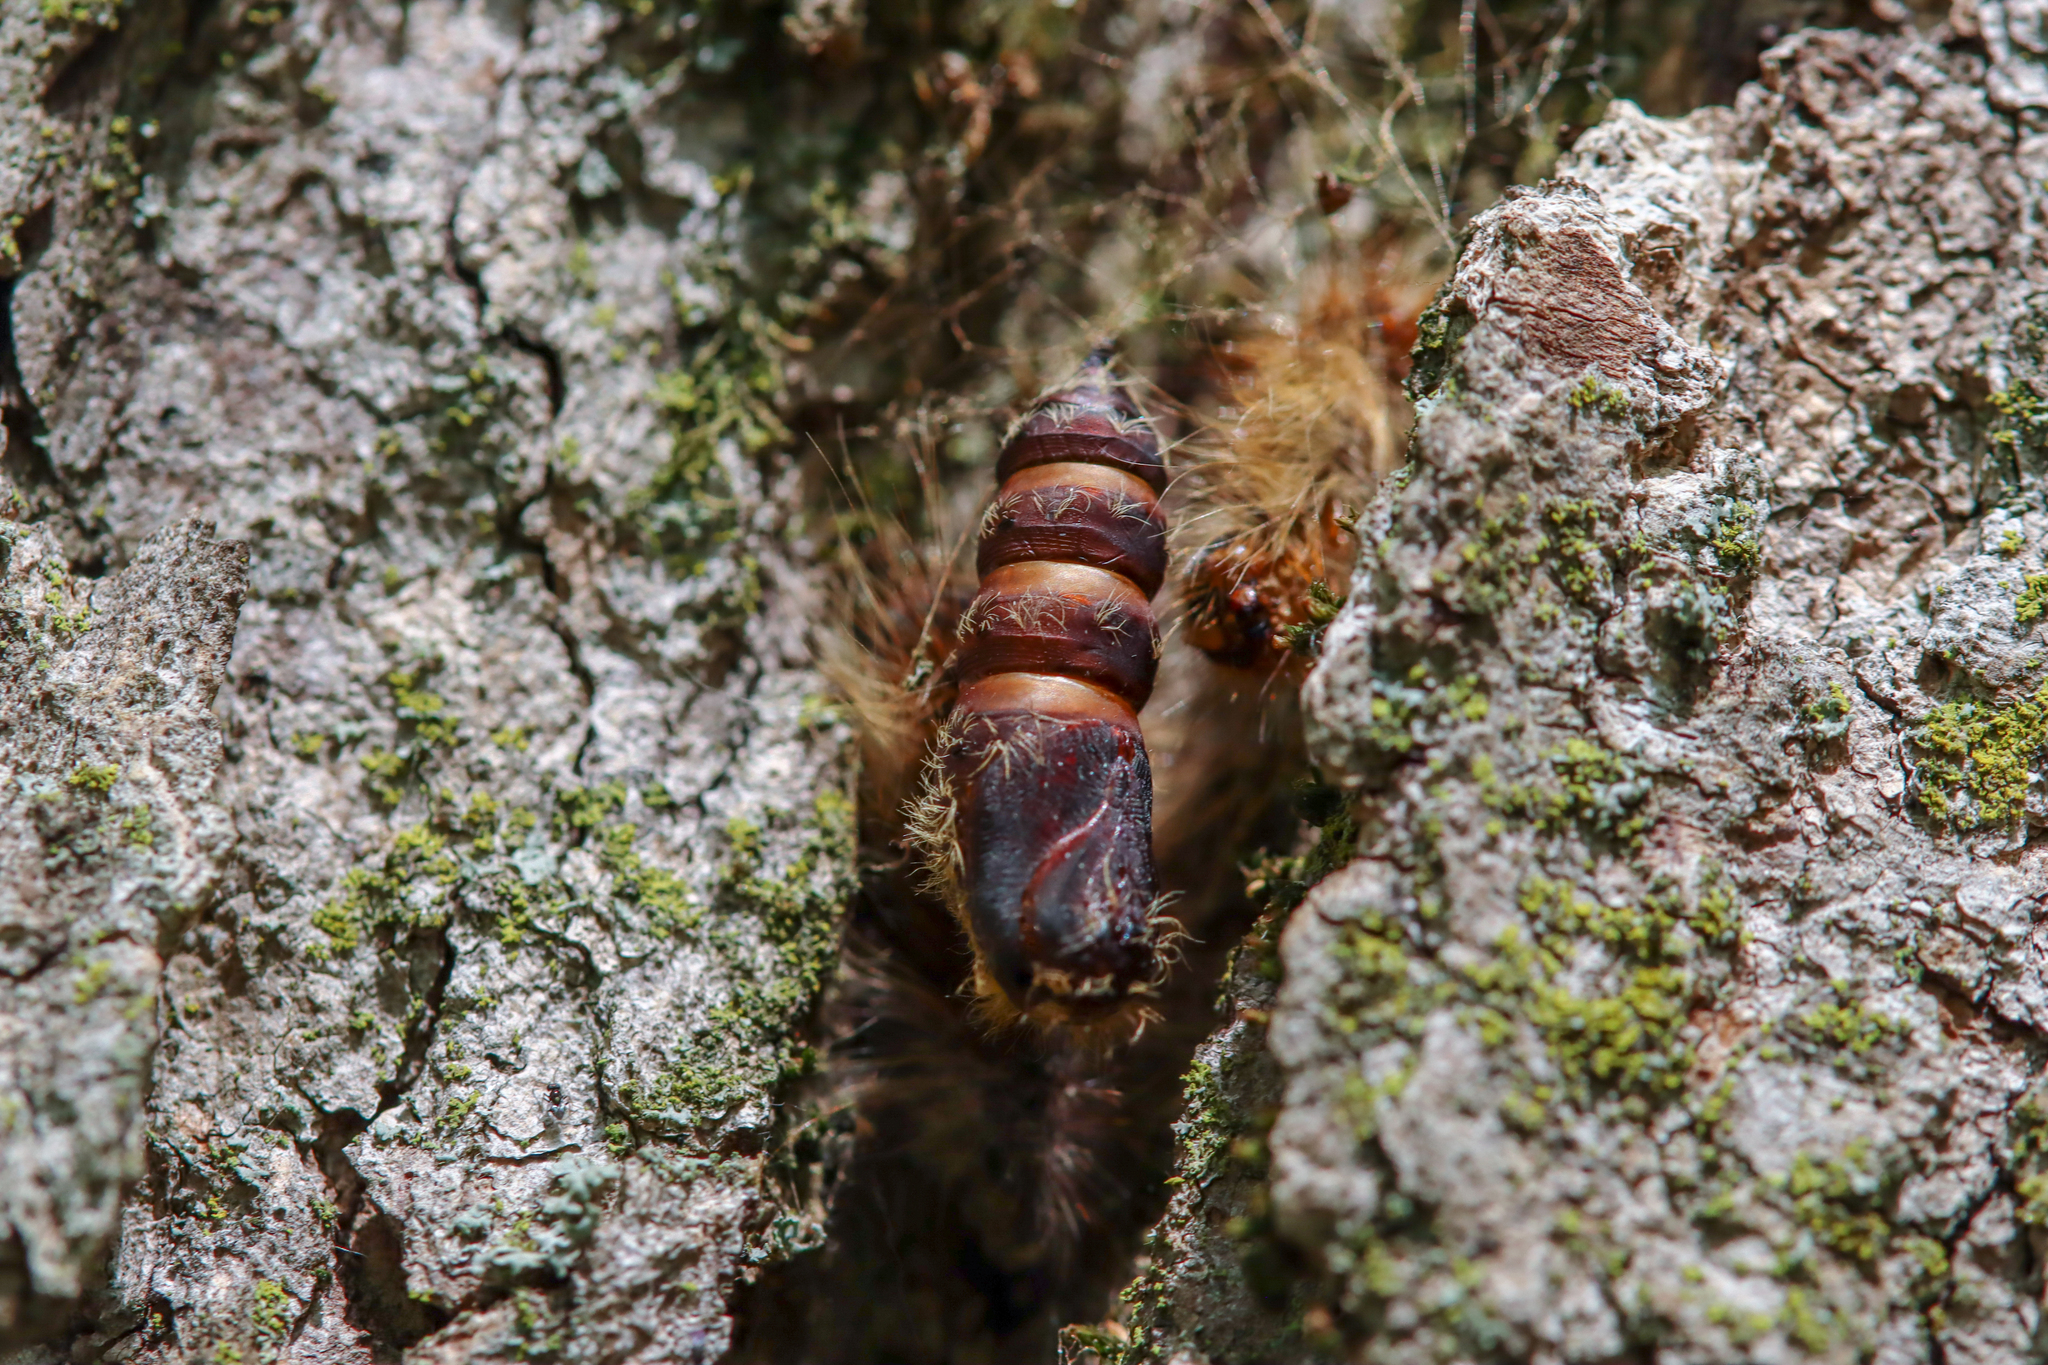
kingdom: Animalia
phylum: Arthropoda
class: Insecta
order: Lepidoptera
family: Erebidae
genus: Lymantria
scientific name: Lymantria dispar
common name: Gypsy moth
